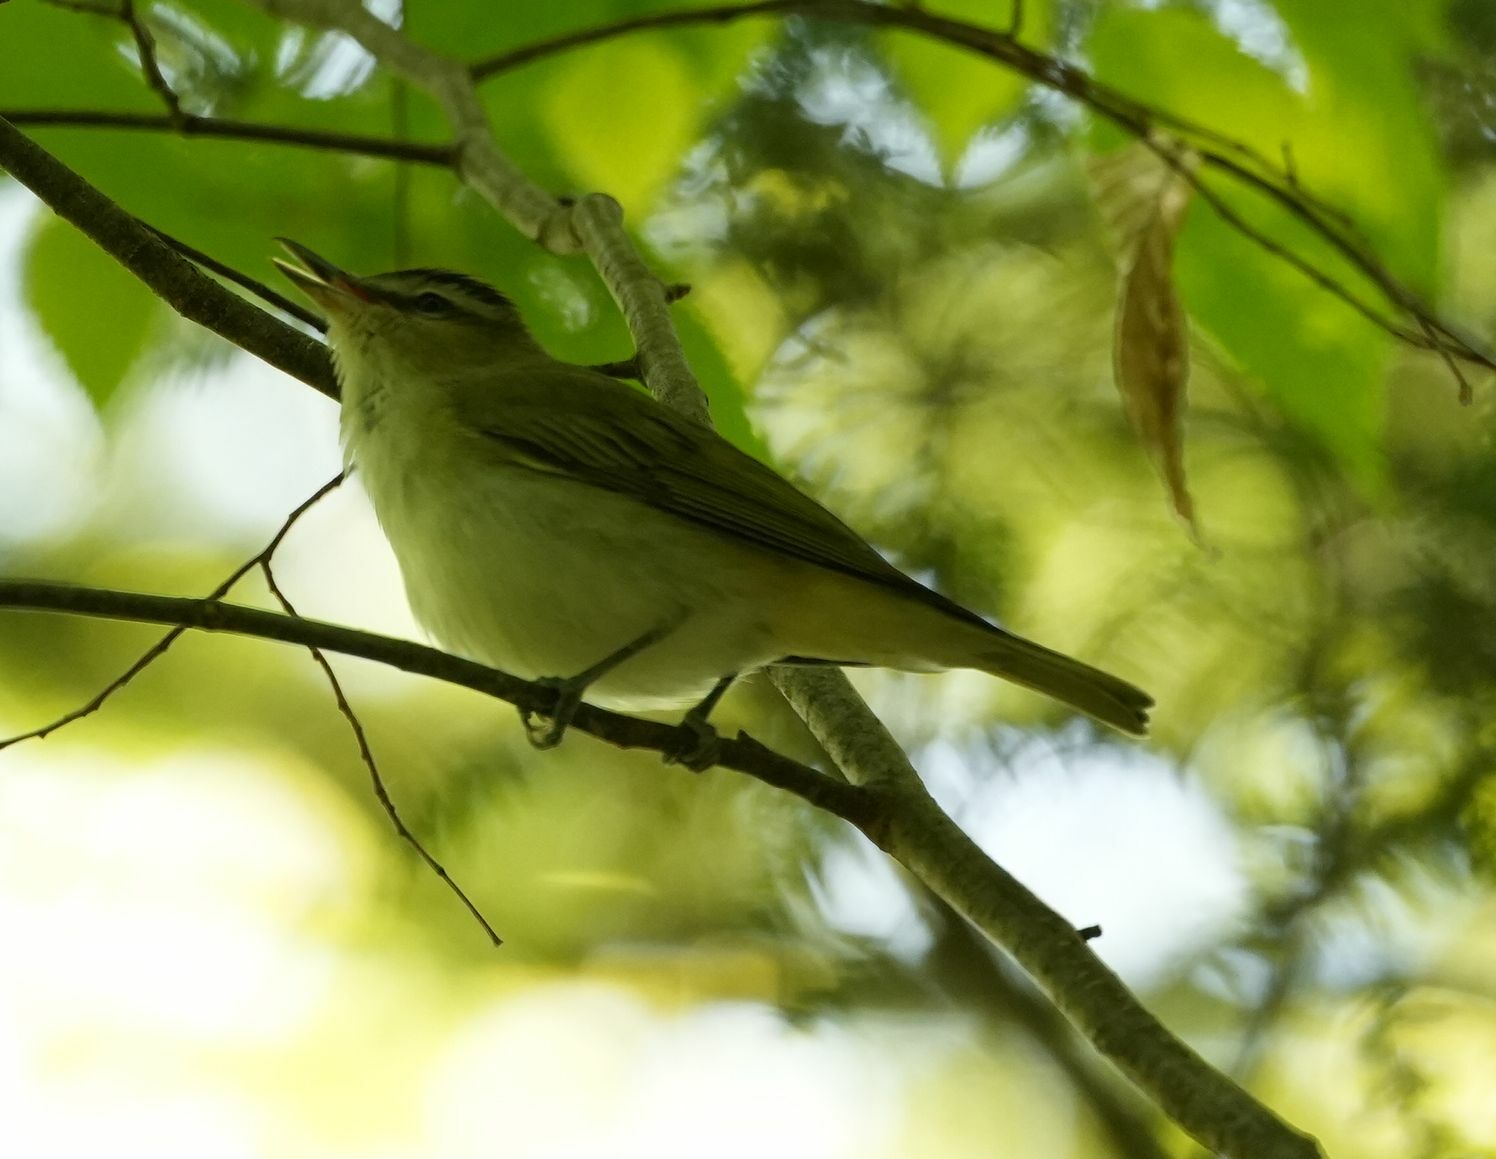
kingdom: Animalia
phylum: Chordata
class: Aves
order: Passeriformes
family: Vireonidae
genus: Vireo
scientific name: Vireo olivaceus
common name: Red-eyed vireo
